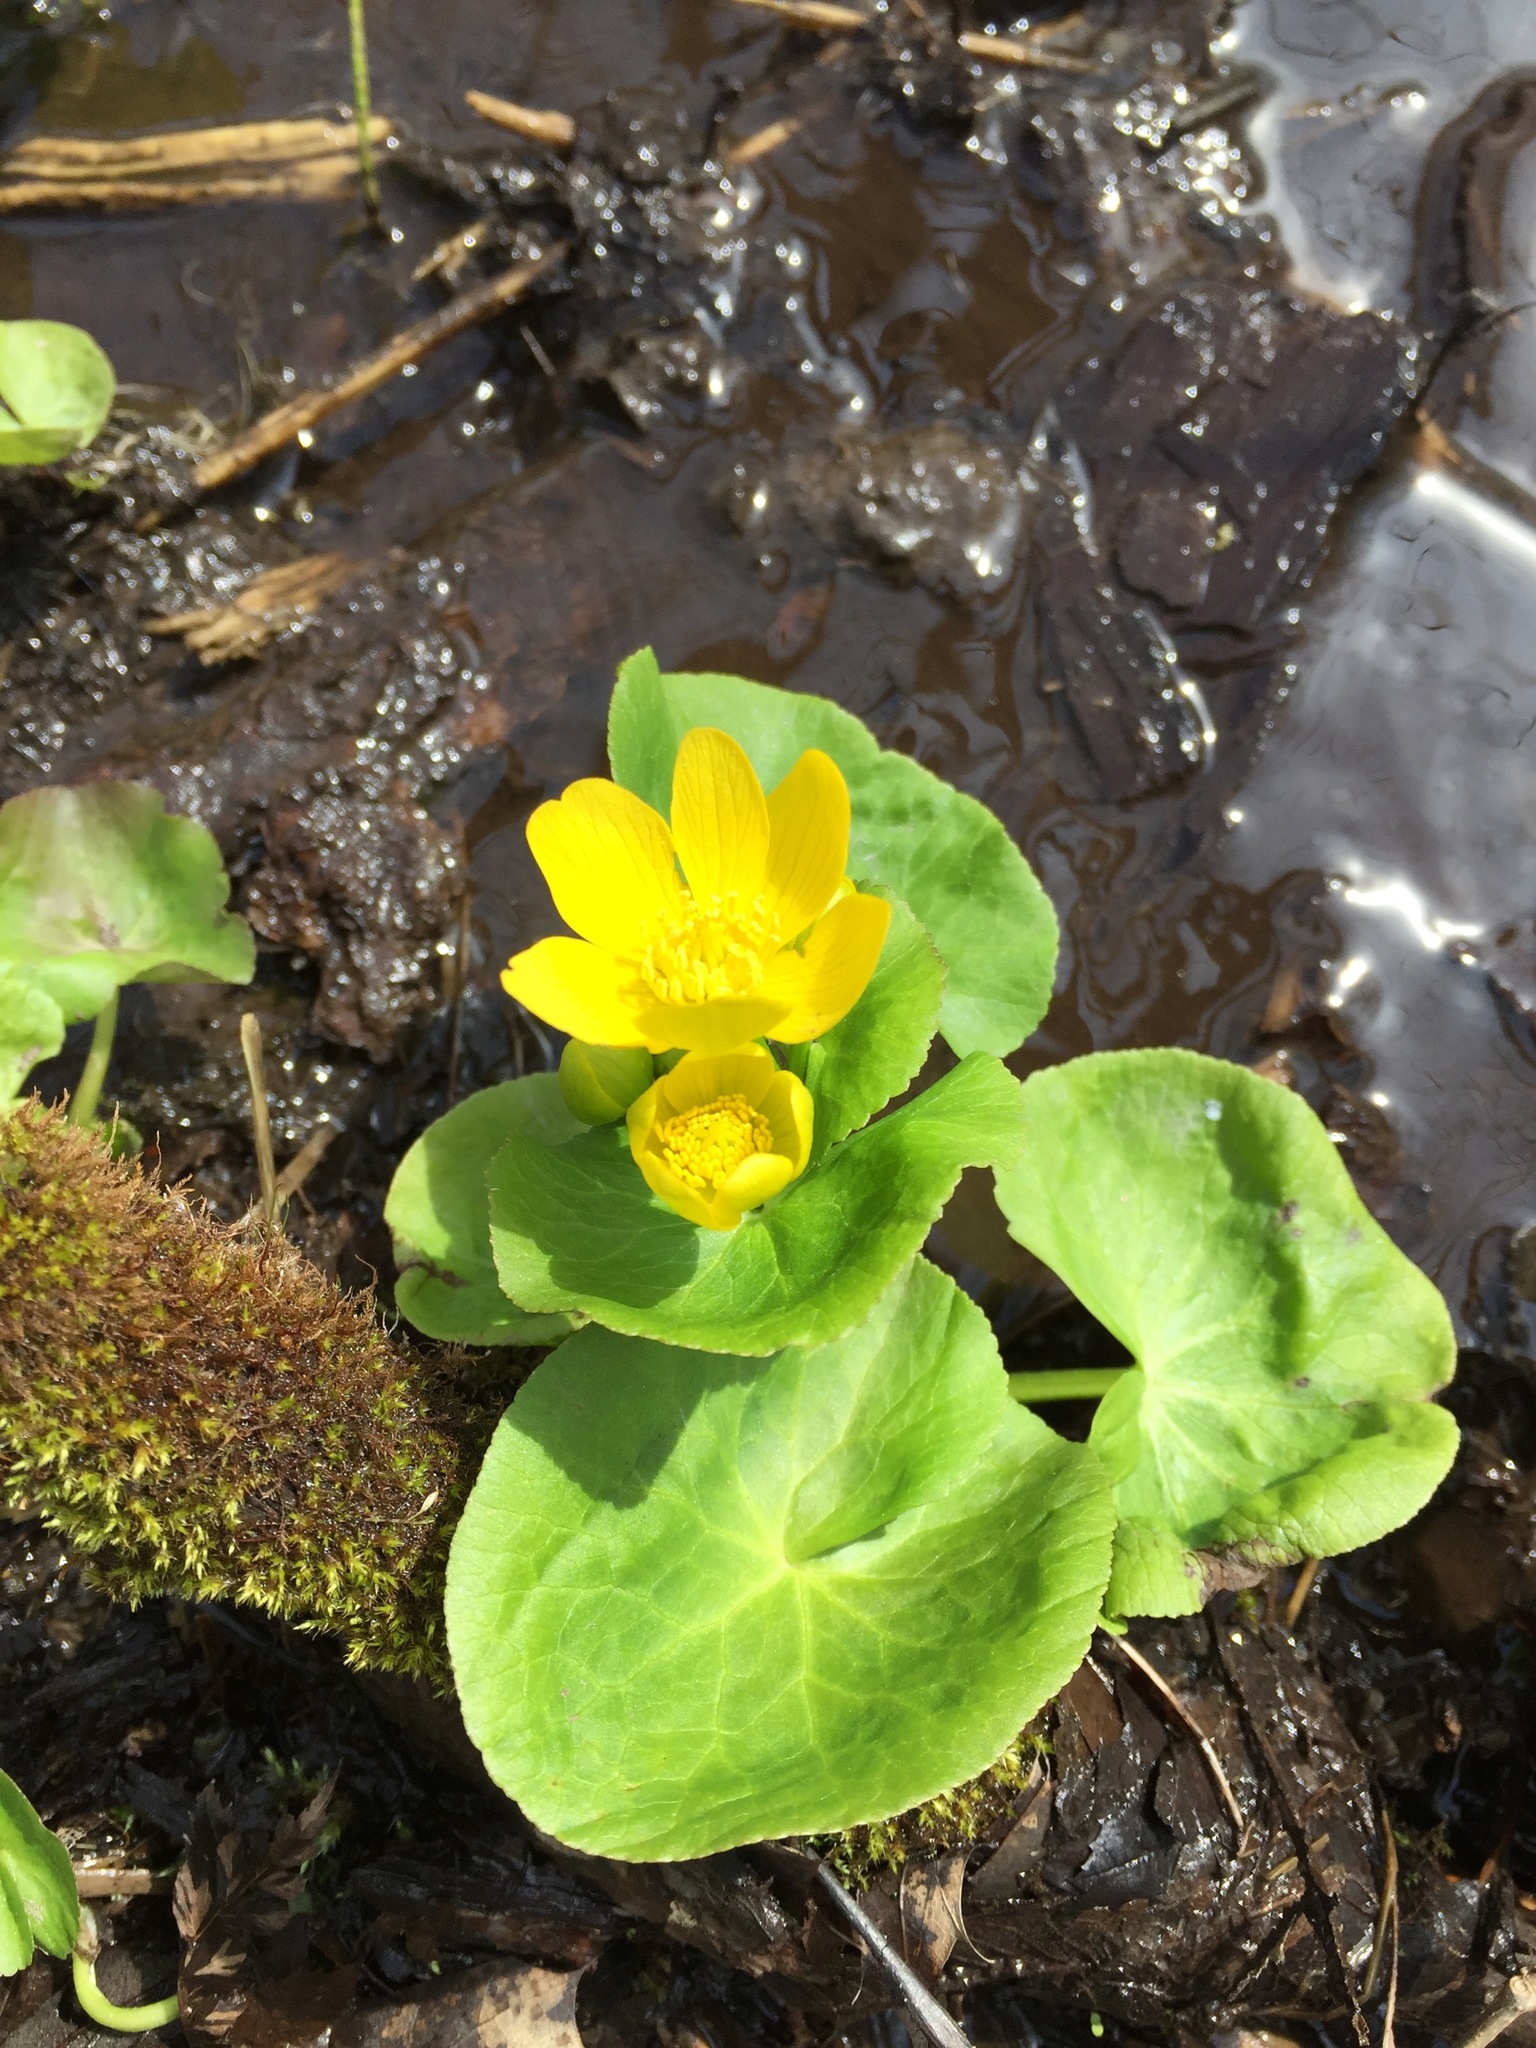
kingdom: Plantae
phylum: Tracheophyta
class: Magnoliopsida
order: Ranunculales
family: Ranunculaceae
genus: Caltha
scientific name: Caltha palustris
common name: Marsh marigold
